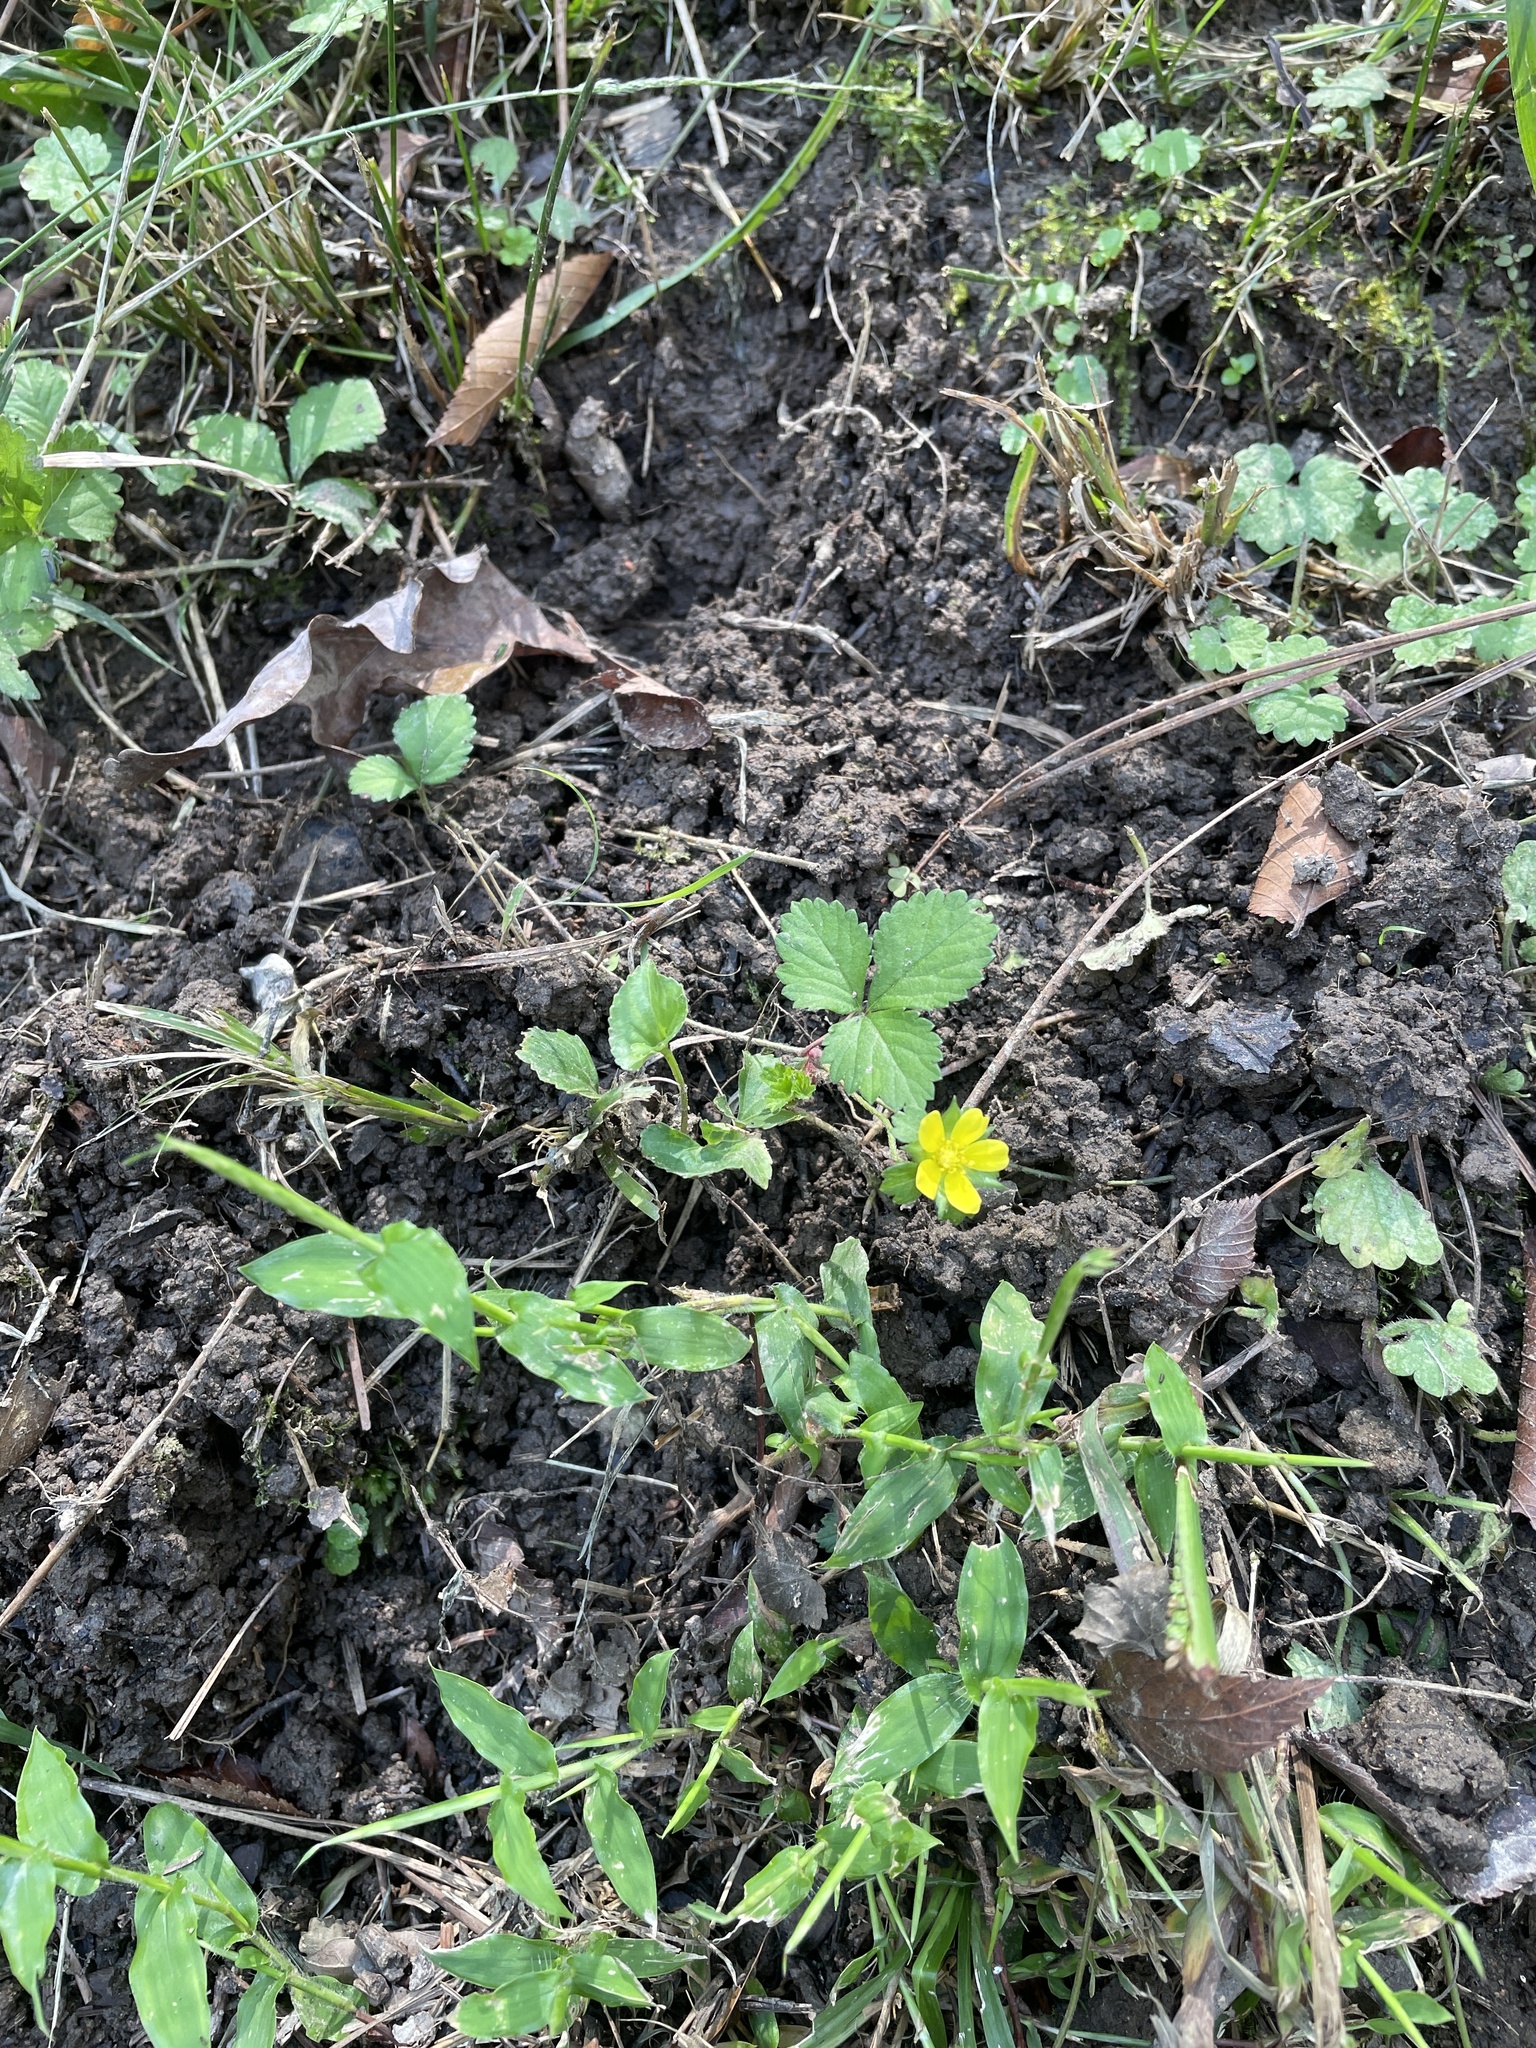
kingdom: Plantae
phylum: Tracheophyta
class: Magnoliopsida
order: Rosales
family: Rosaceae
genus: Potentilla
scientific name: Potentilla indica
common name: Yellow-flowered strawberry
